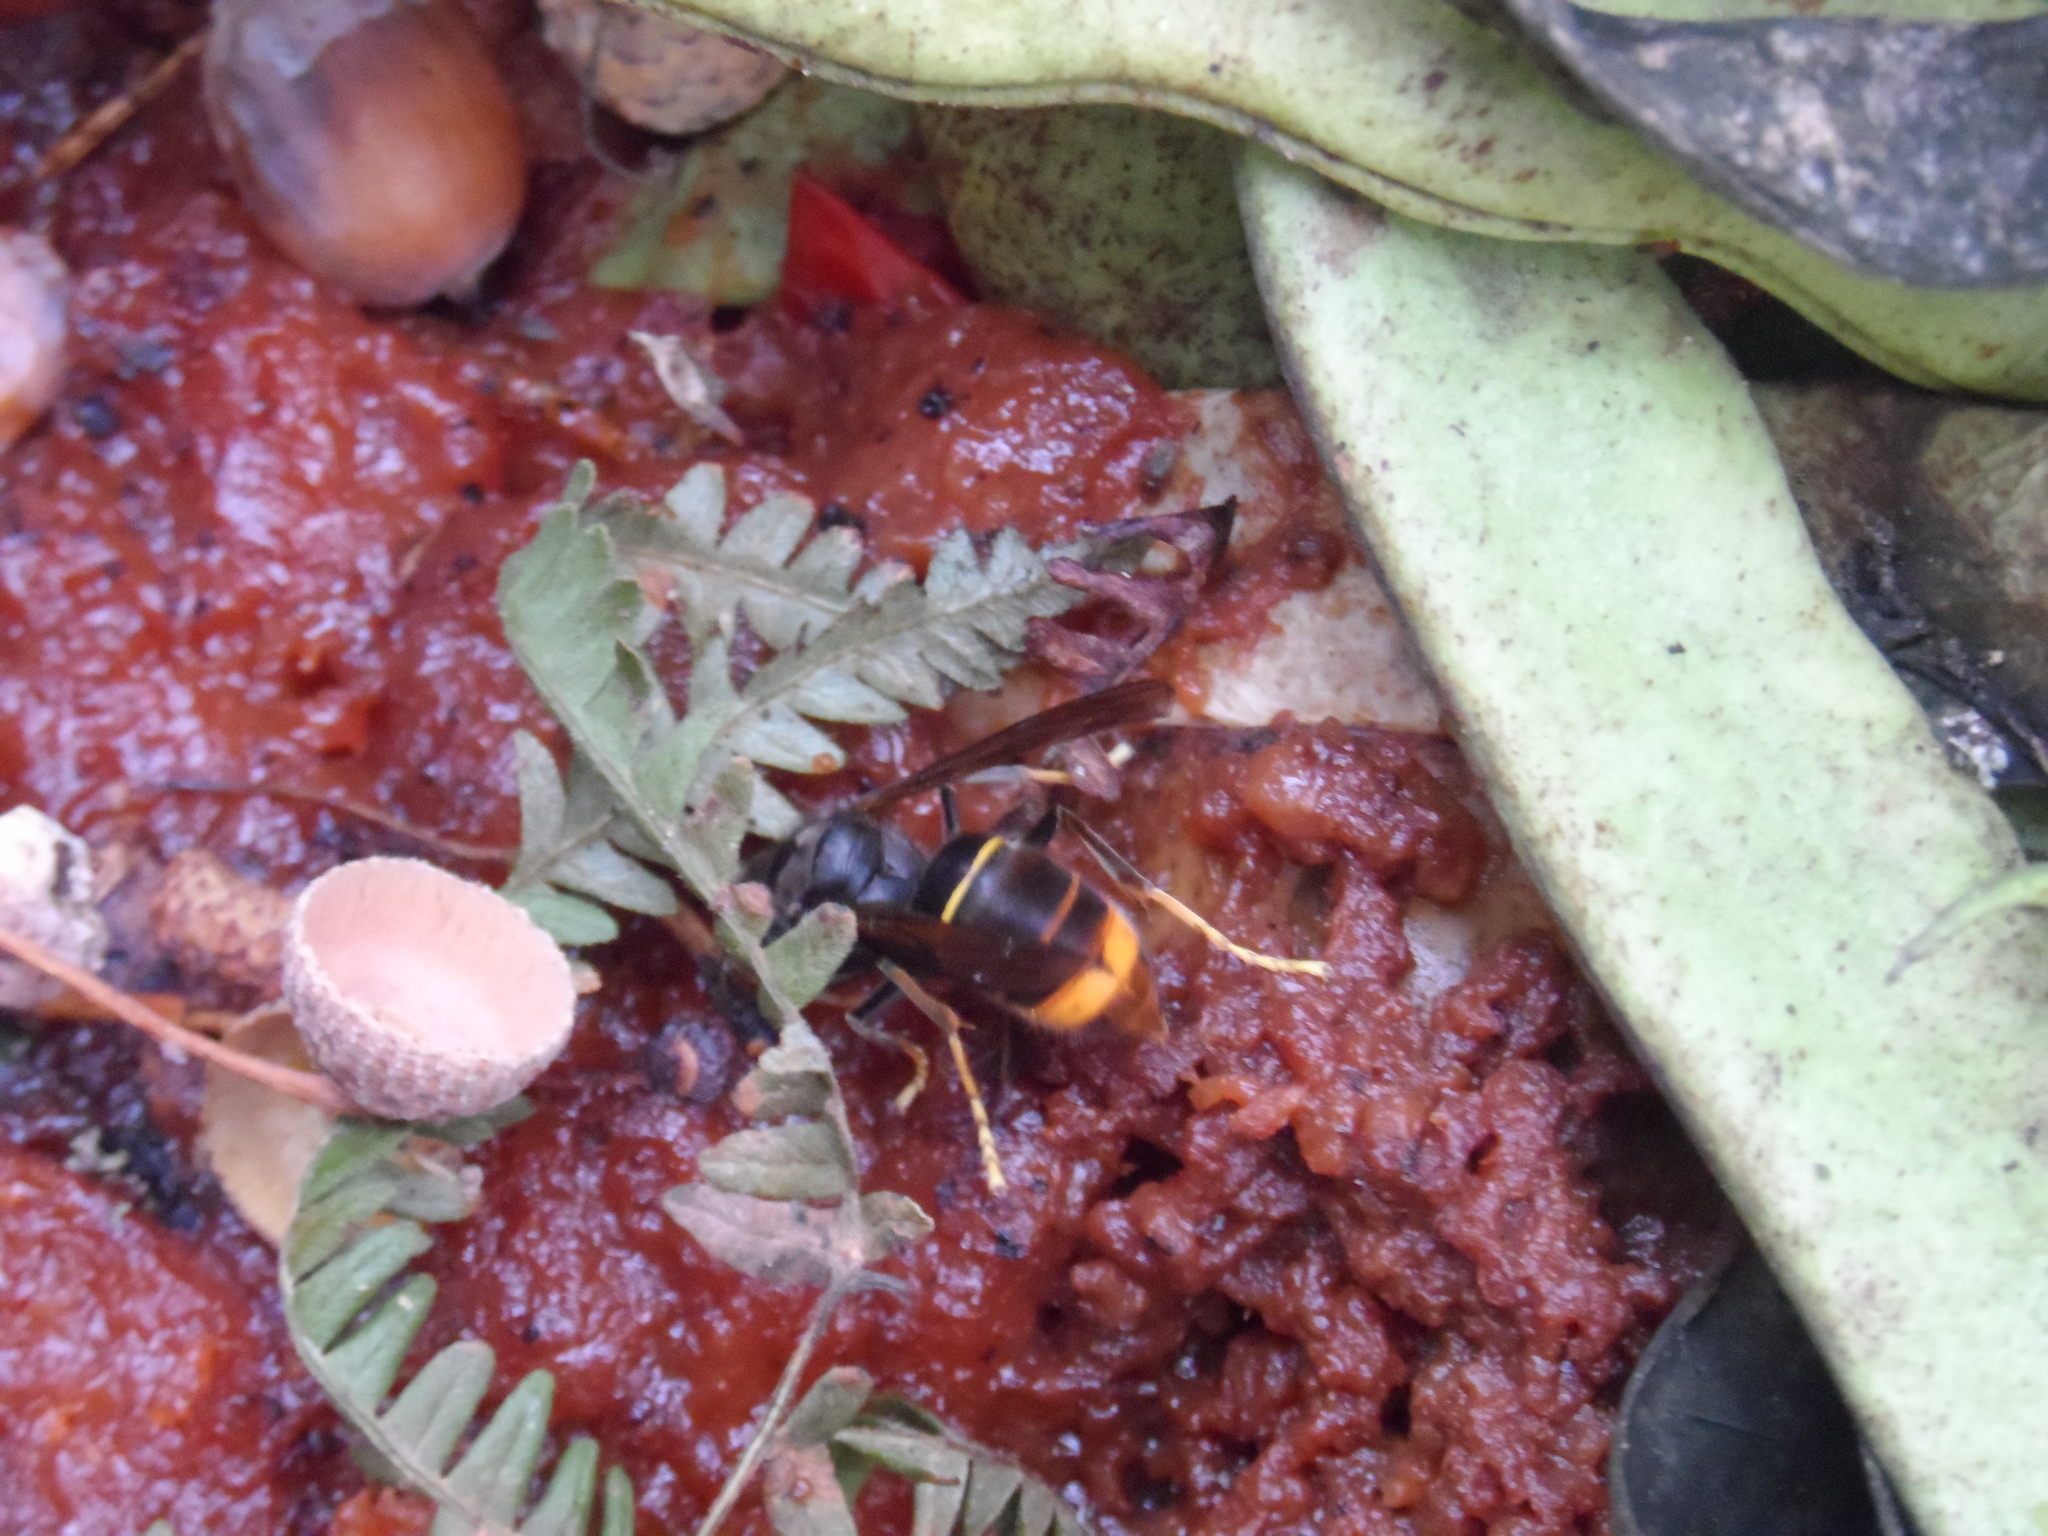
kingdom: Animalia
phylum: Arthropoda
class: Insecta
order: Hymenoptera
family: Vespidae
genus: Vespa
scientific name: Vespa velutina
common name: Asian hornet
